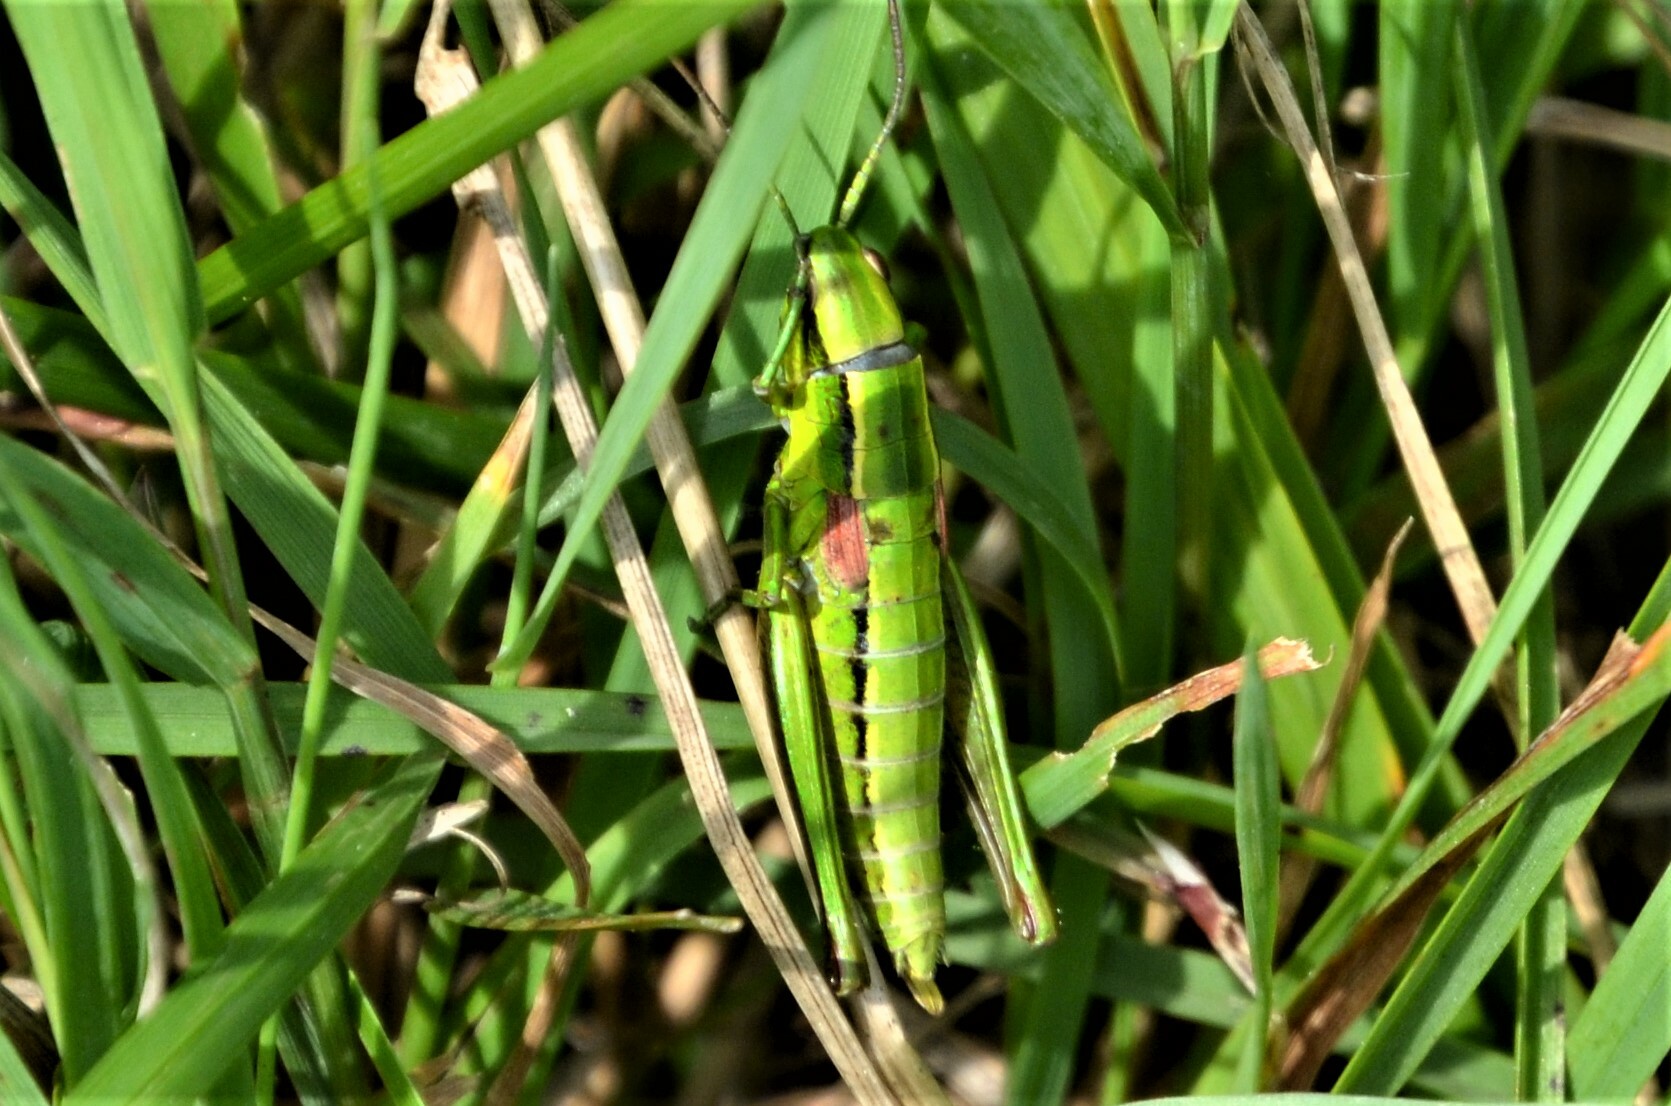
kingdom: Animalia
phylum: Arthropoda
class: Insecta
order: Orthoptera
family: Acrididae
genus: Euthystira
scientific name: Euthystira brachyptera
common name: Small gold grasshopper
